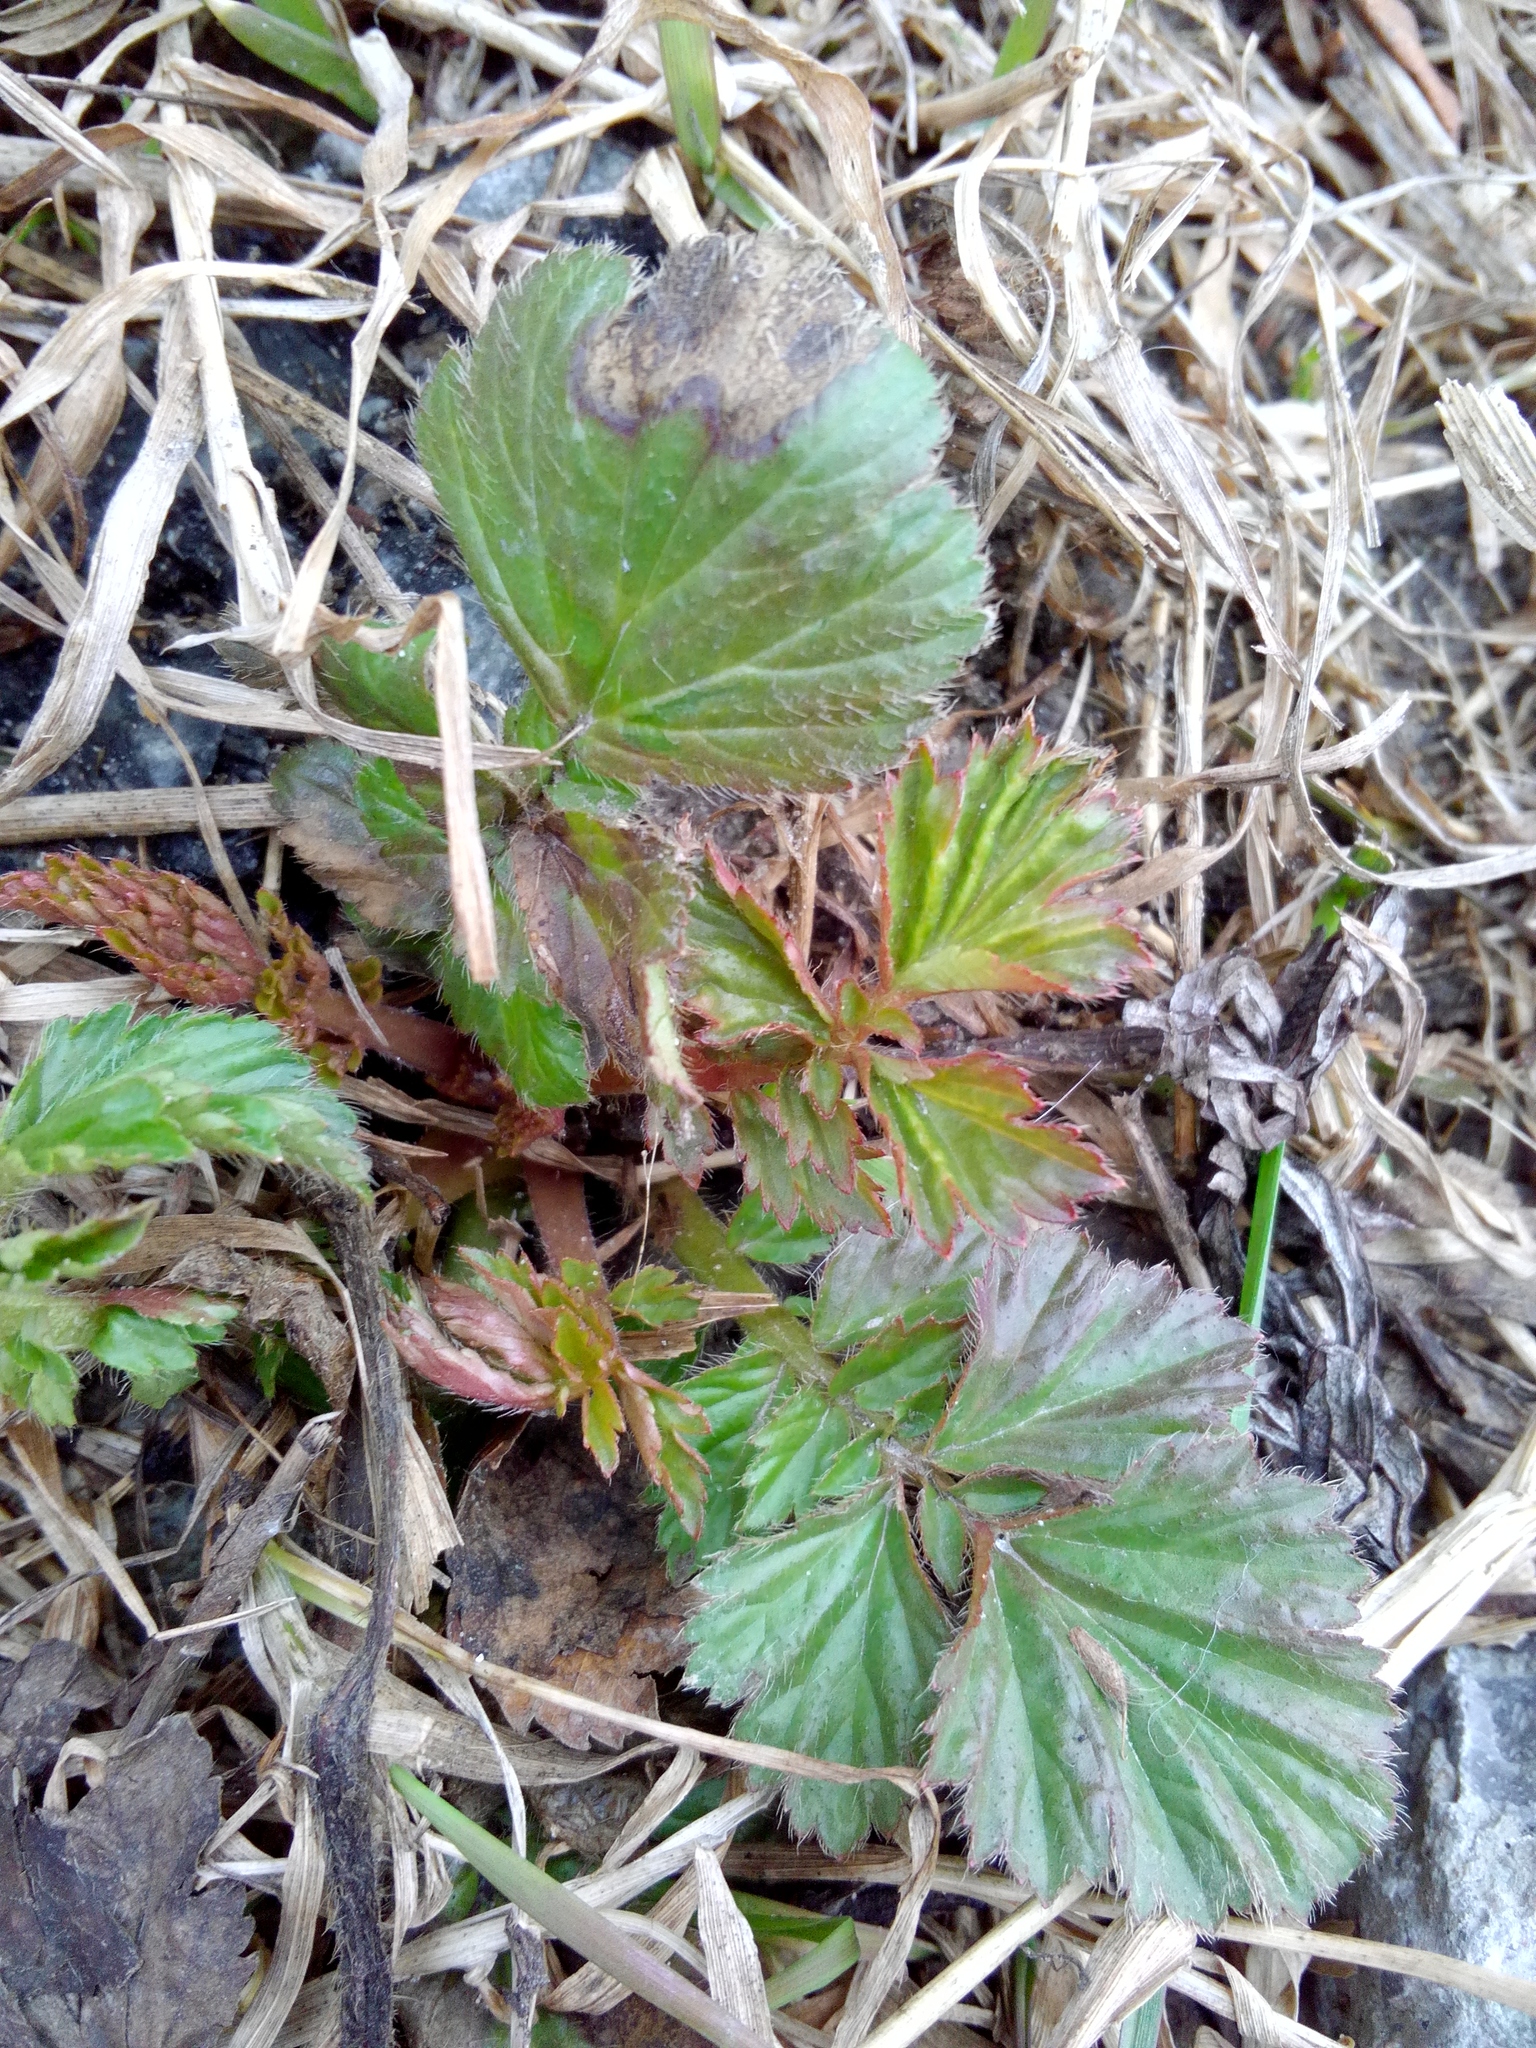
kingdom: Plantae
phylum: Tracheophyta
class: Magnoliopsida
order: Rosales
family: Rosaceae
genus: Geum
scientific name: Geum aleppicum
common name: Yellow avens
